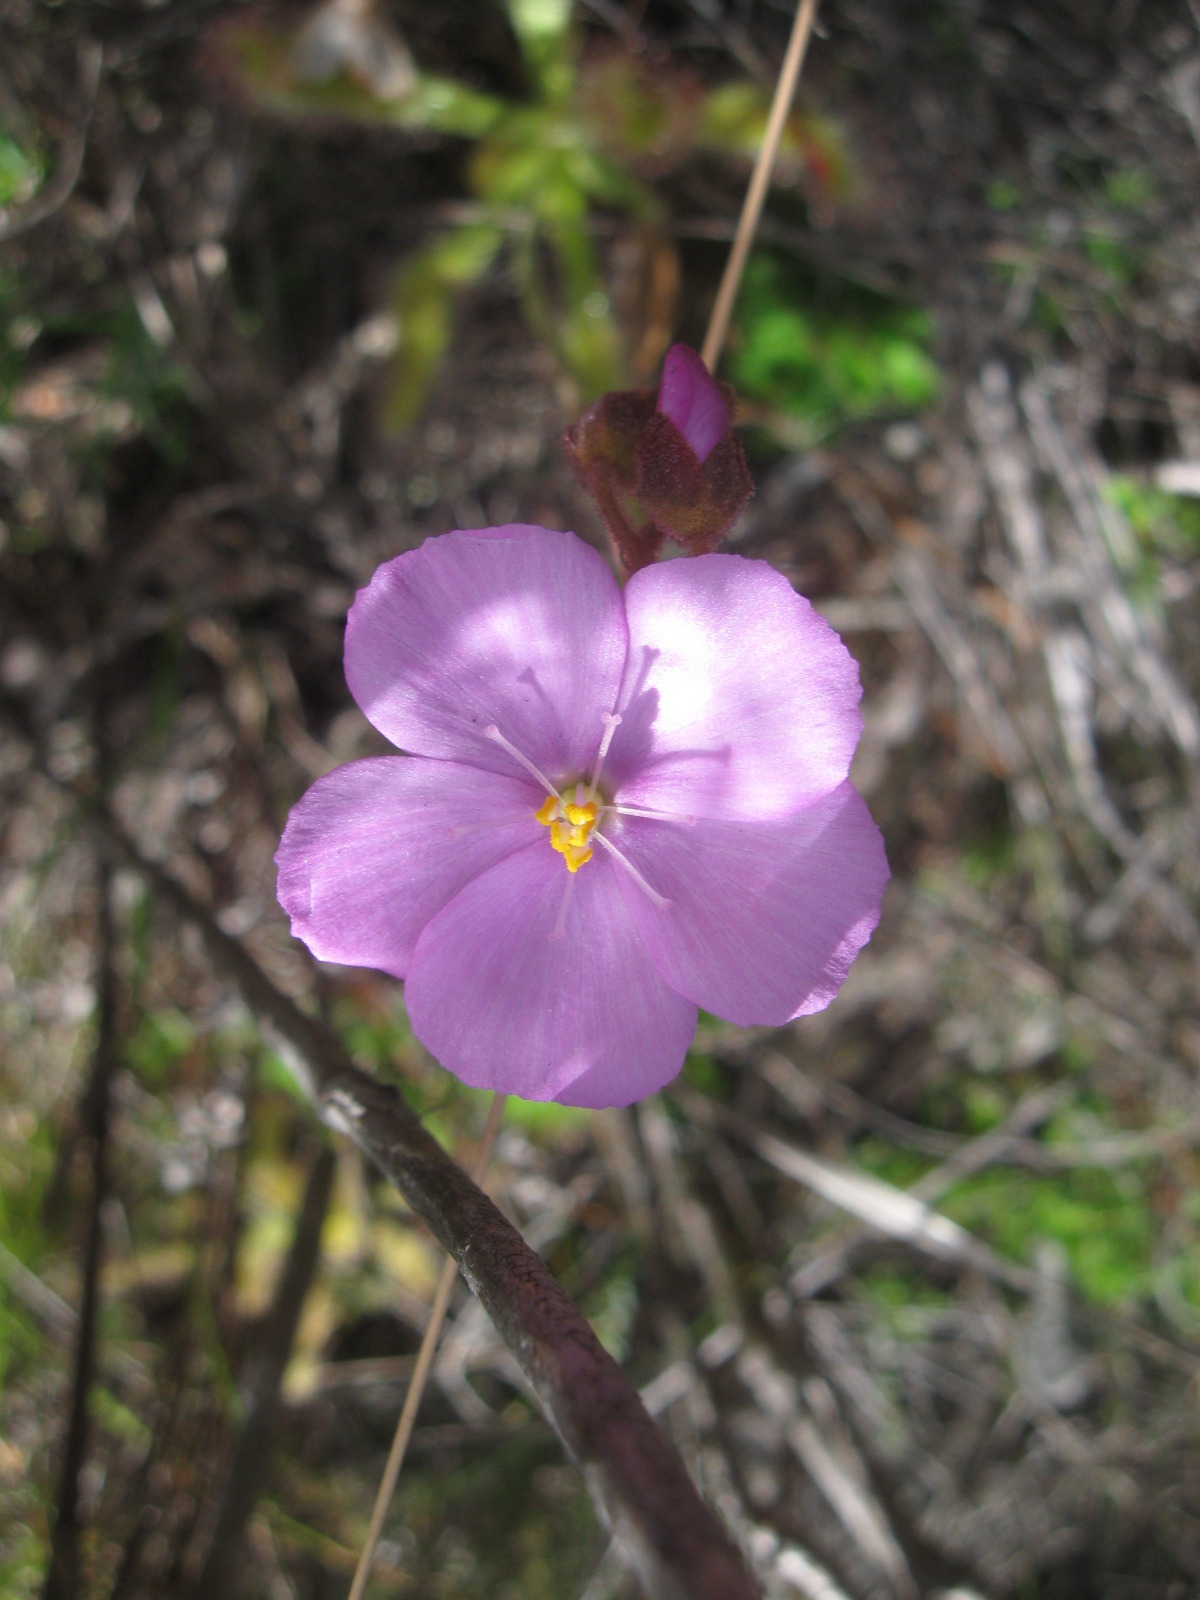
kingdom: Plantae
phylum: Tracheophyta
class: Magnoliopsida
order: Caryophyllales
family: Droseraceae
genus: Drosera
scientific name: Drosera hilaris
